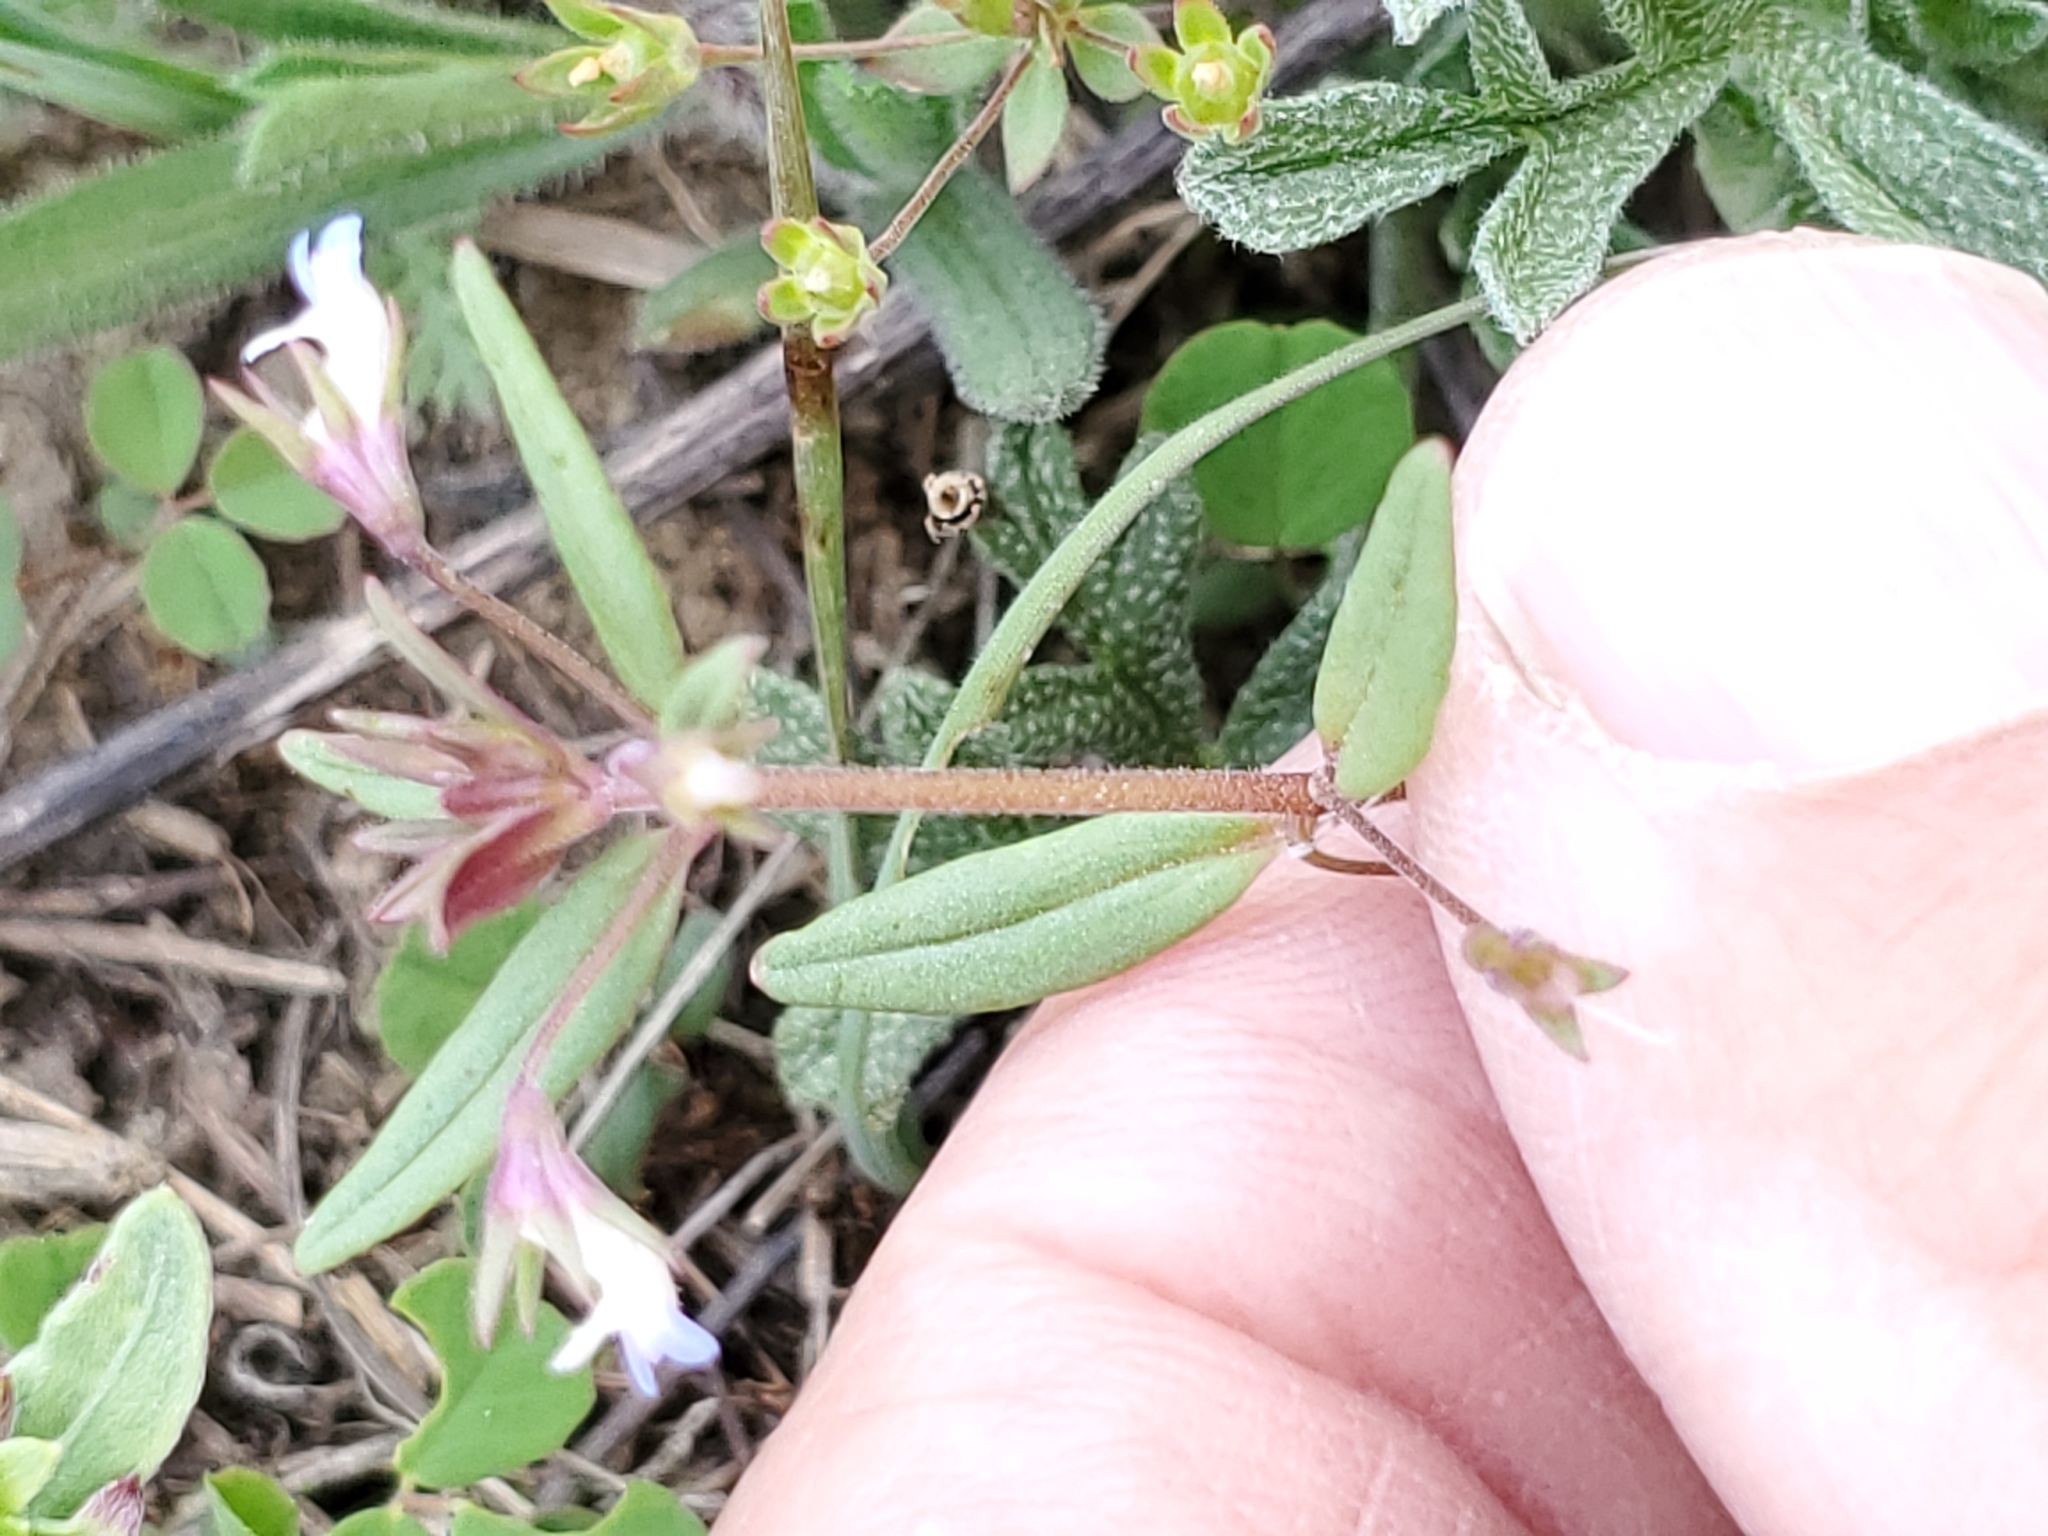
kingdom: Plantae
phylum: Tracheophyta
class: Magnoliopsida
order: Lamiales
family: Plantaginaceae
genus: Collinsia
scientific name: Collinsia parviflora
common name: Blue-lips
